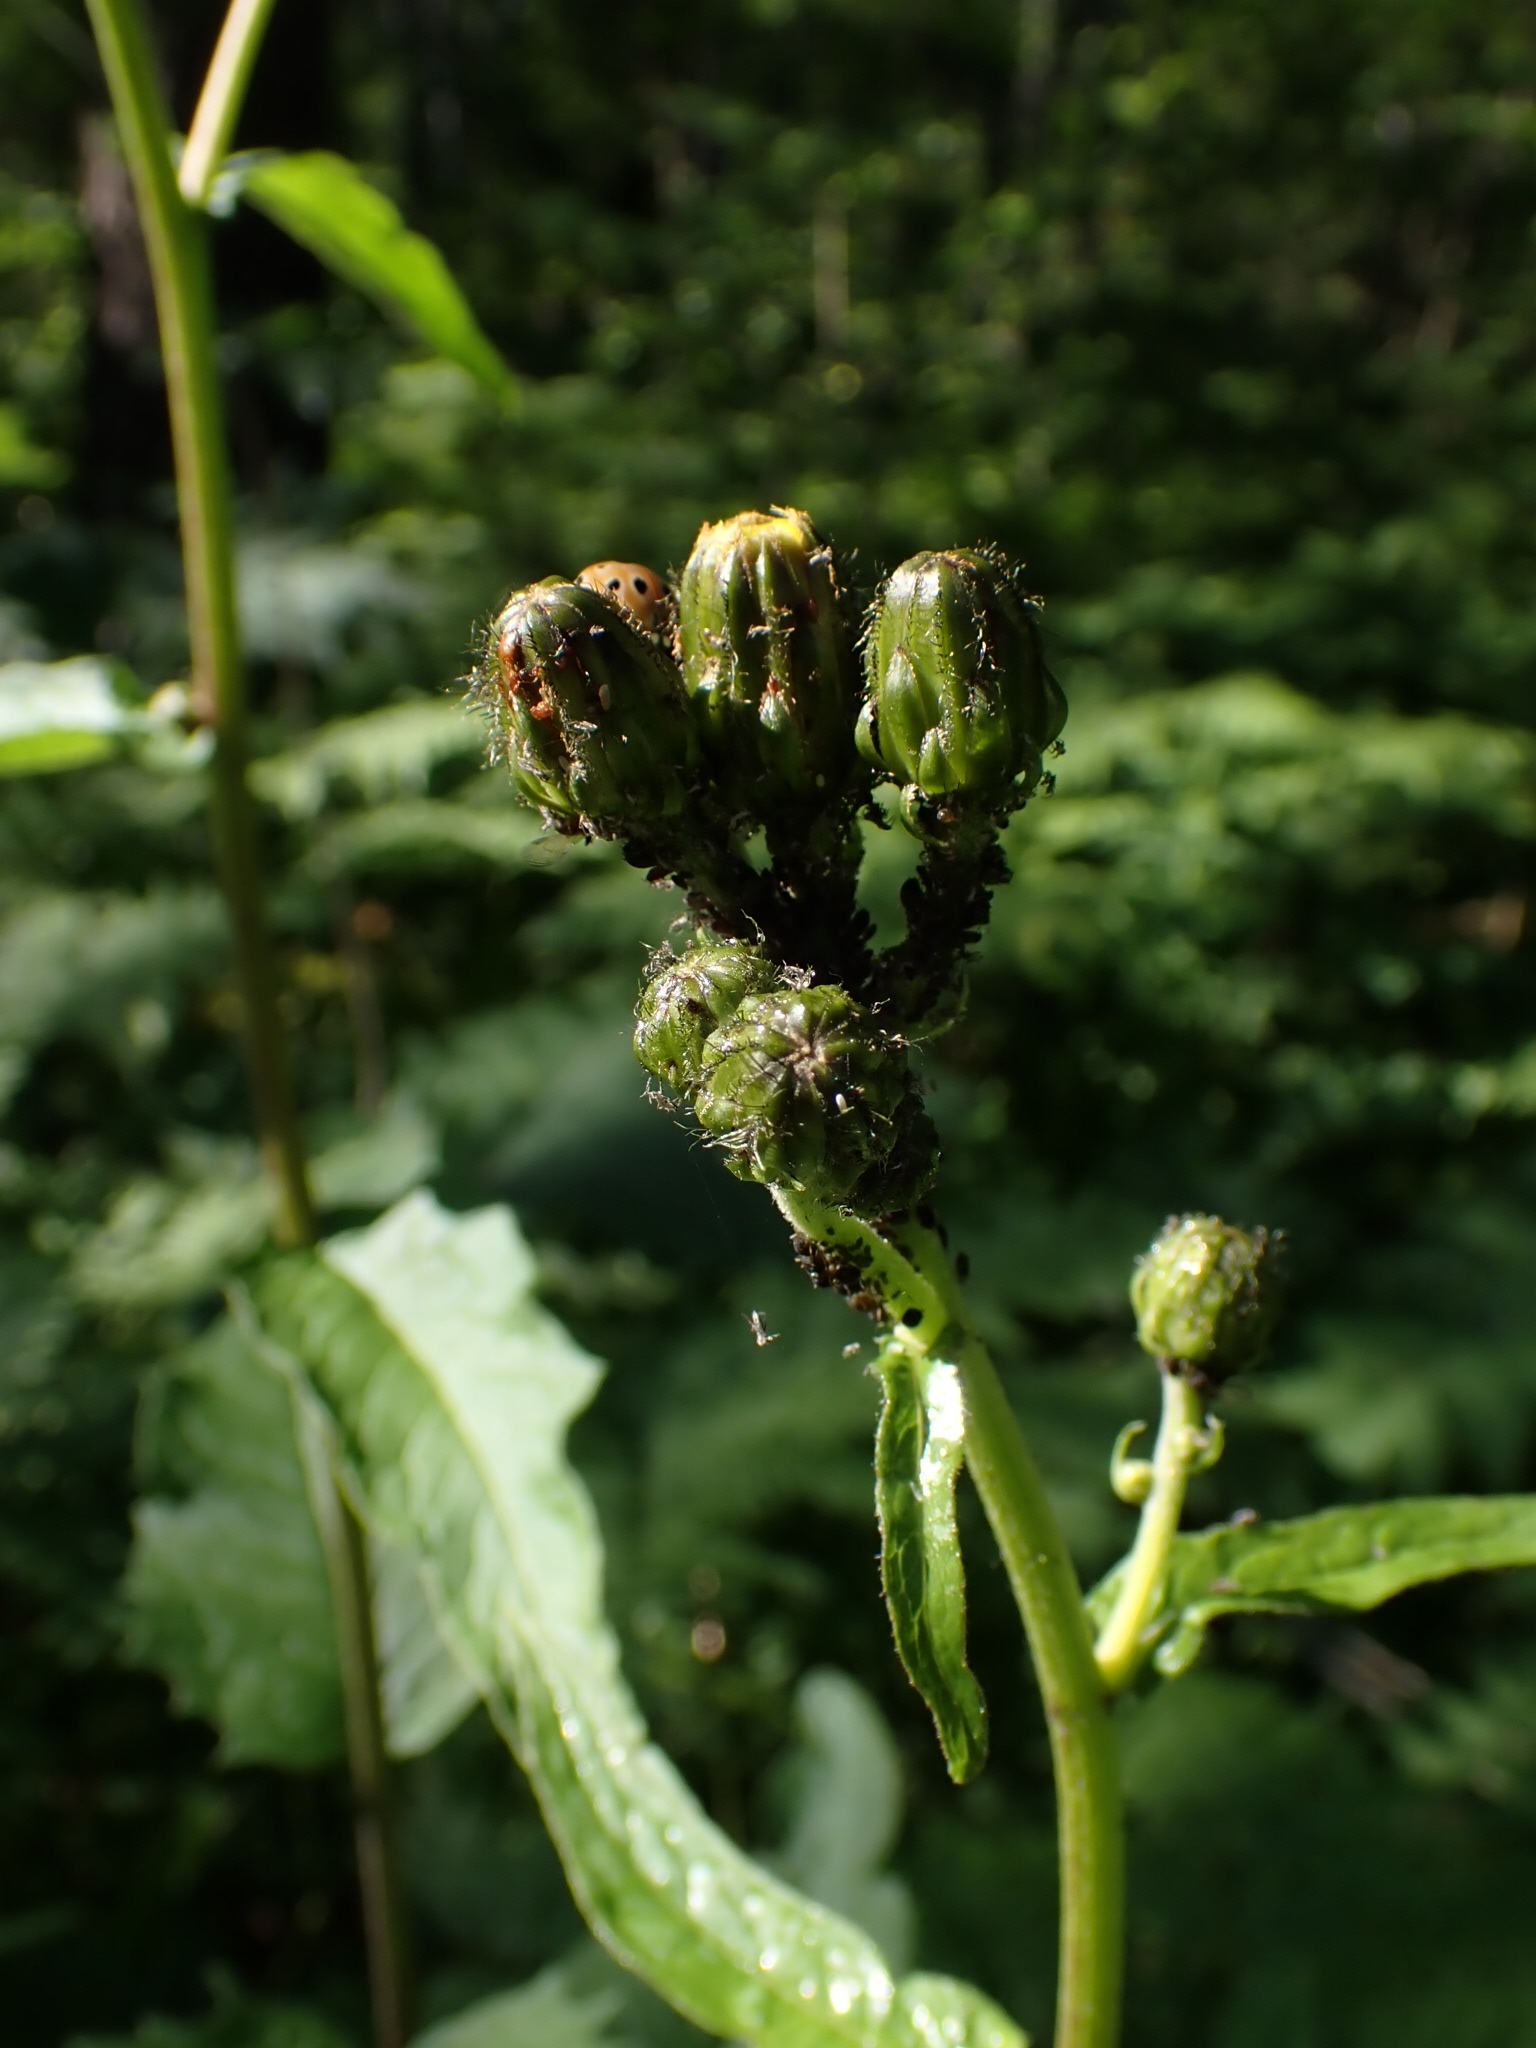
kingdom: Plantae
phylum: Tracheophyta
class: Magnoliopsida
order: Asterales
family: Asteraceae
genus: Crepis
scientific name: Crepis sibirica
